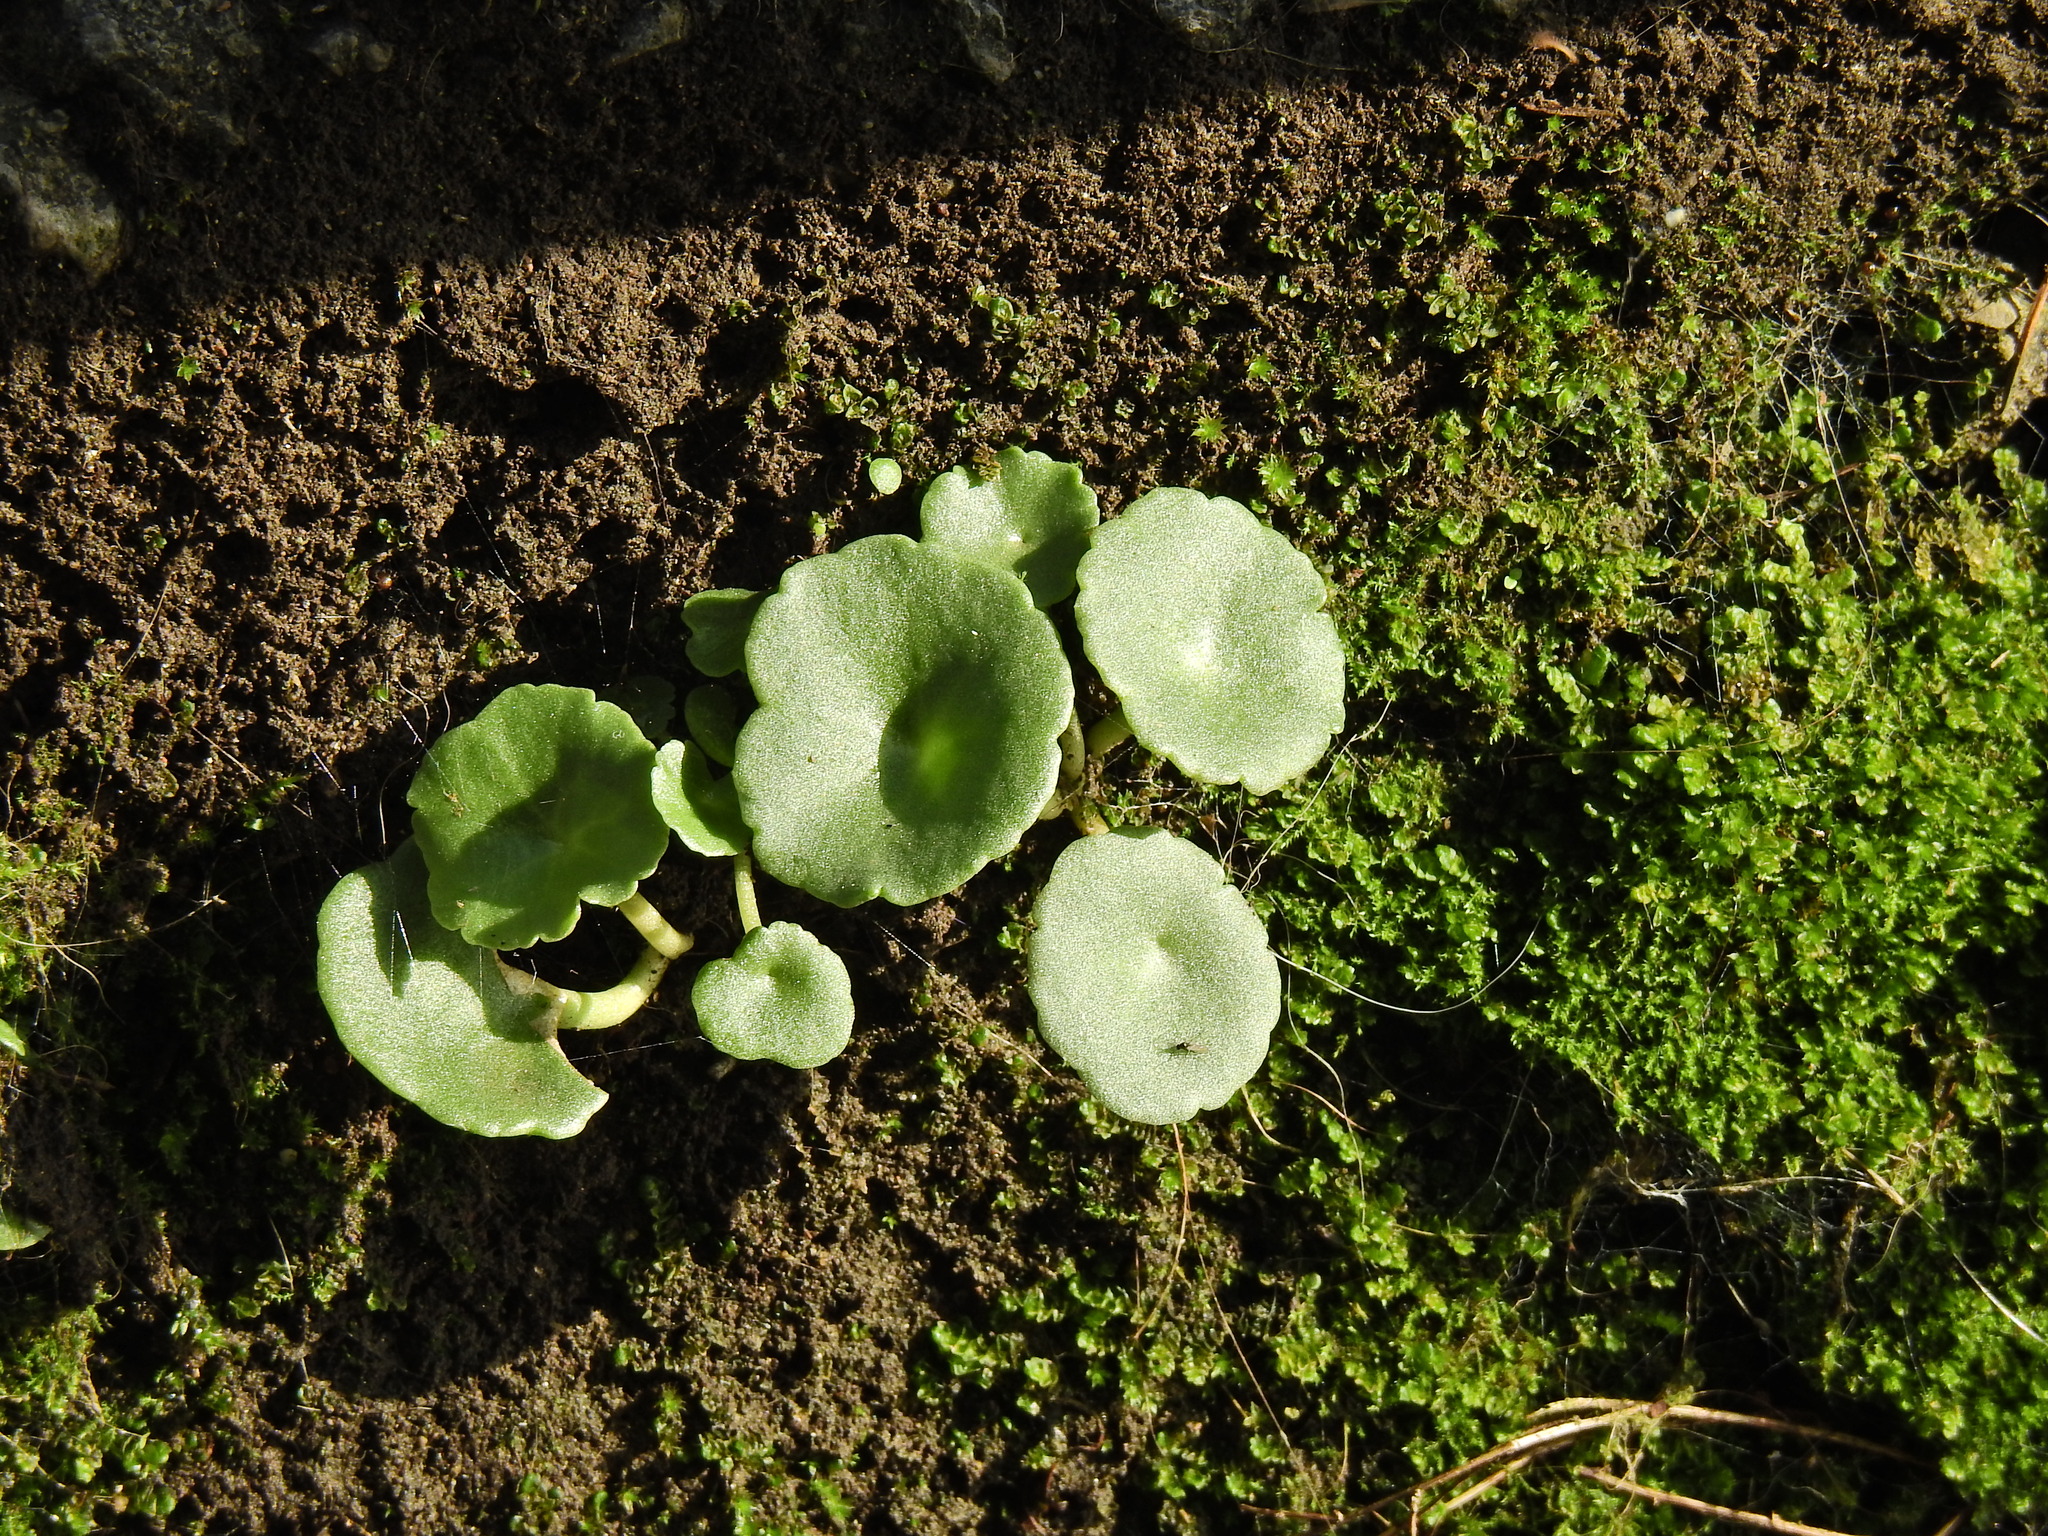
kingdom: Plantae
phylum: Tracheophyta
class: Magnoliopsida
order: Saxifragales
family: Crassulaceae
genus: Umbilicus
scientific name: Umbilicus rupestris
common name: Navelwort
